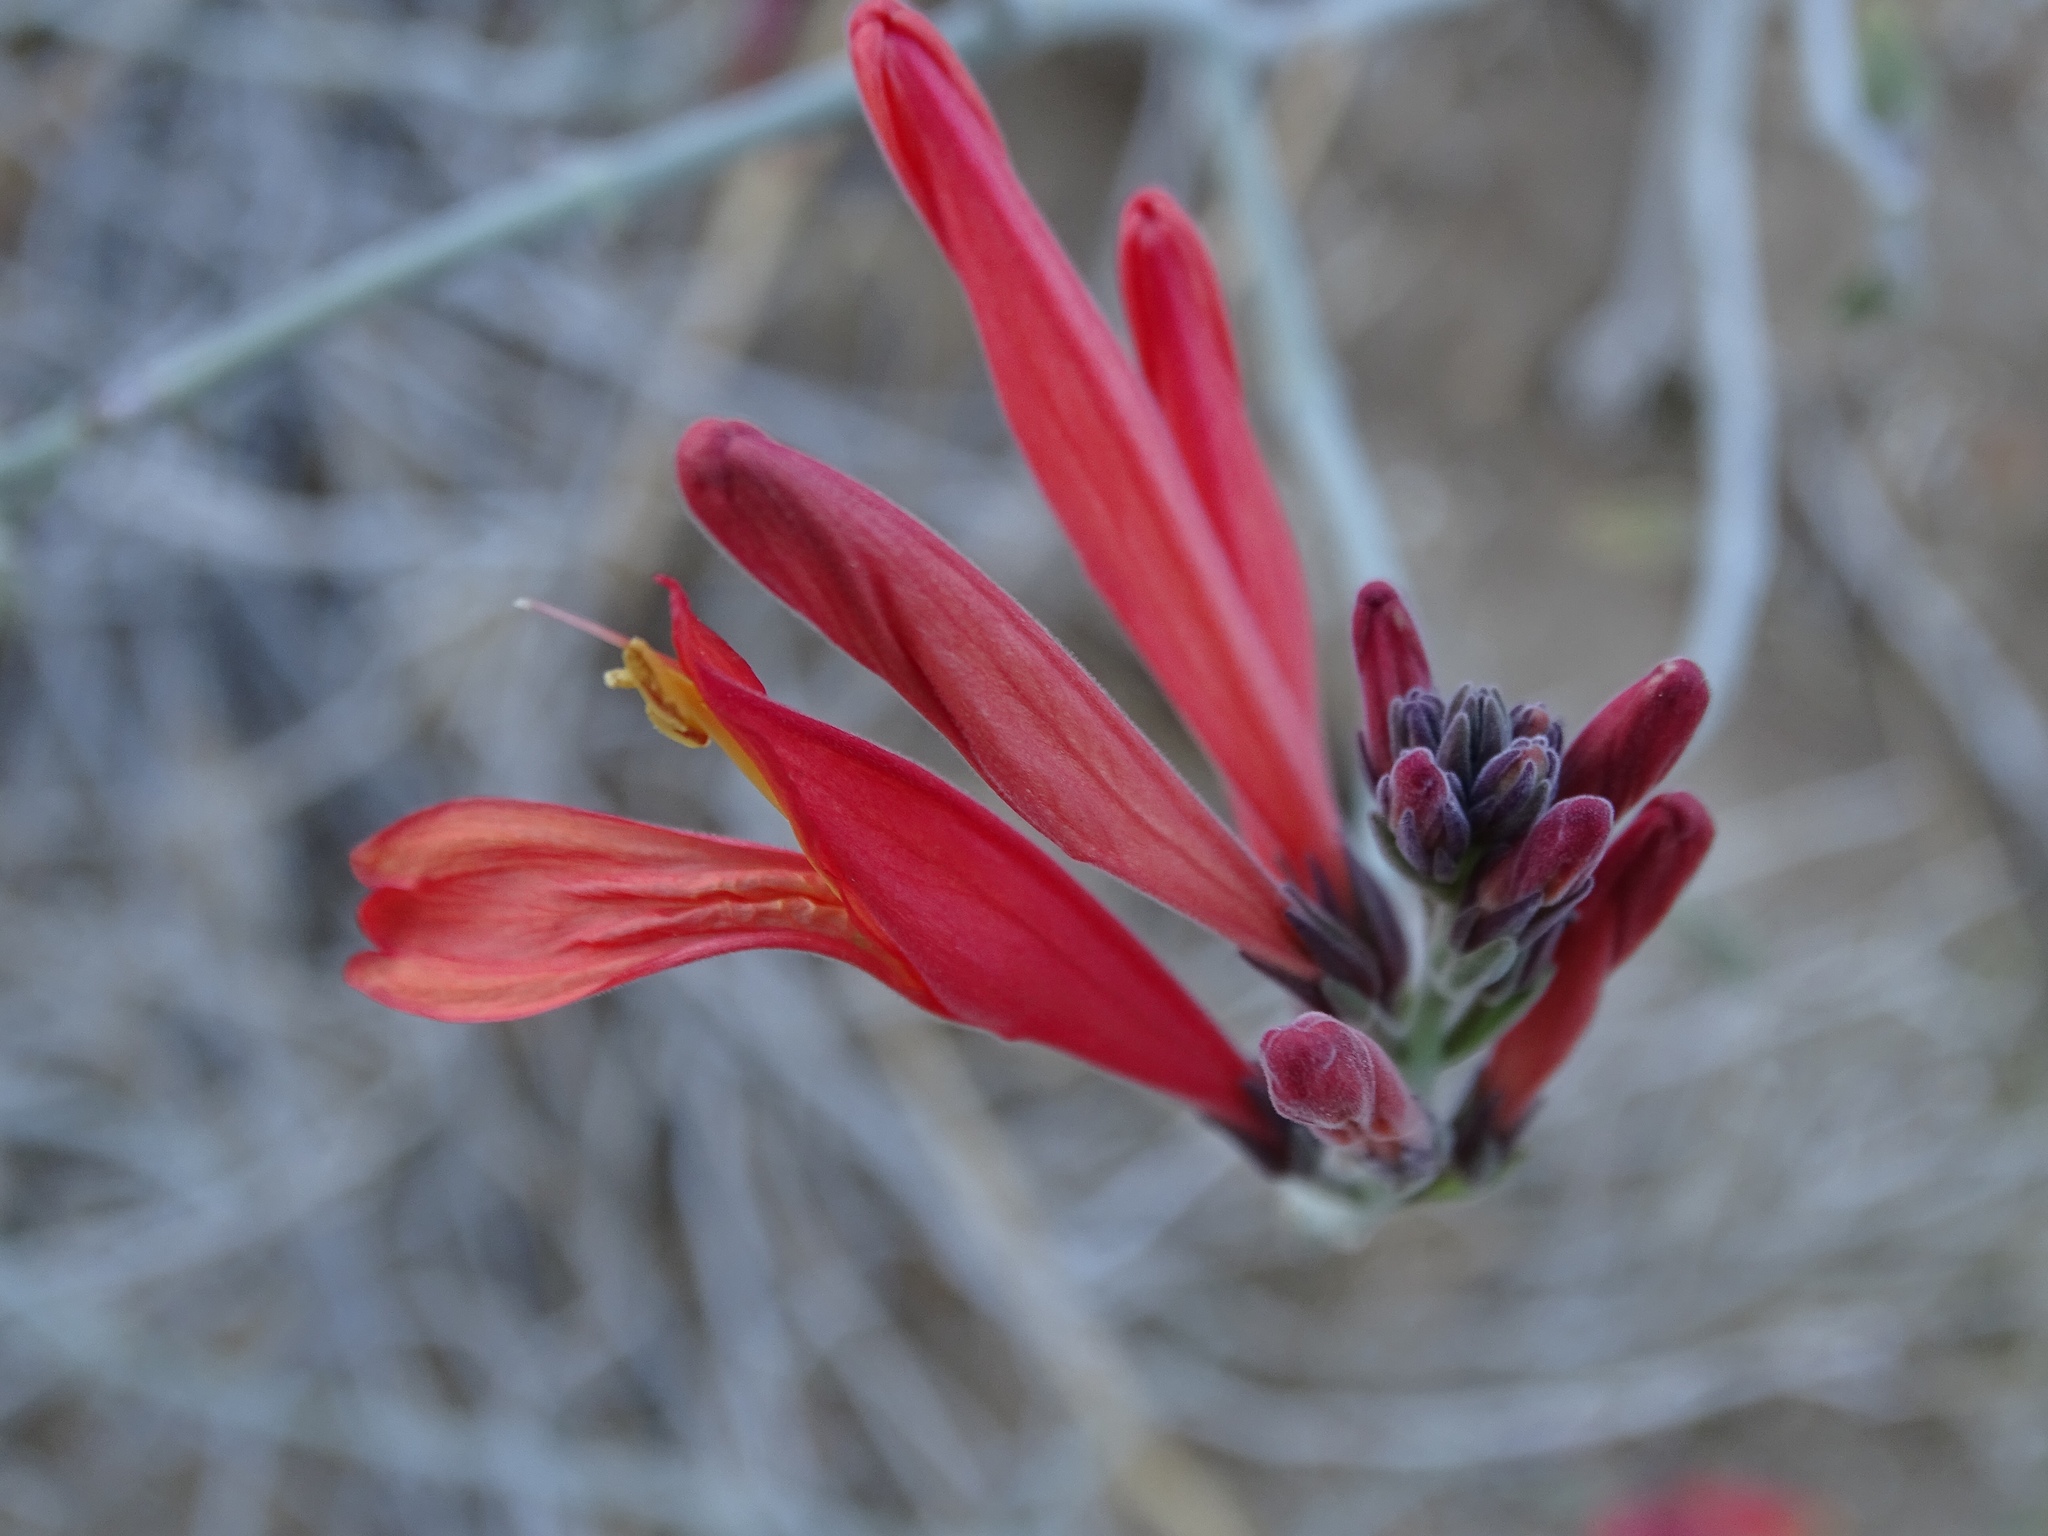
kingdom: Plantae
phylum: Tracheophyta
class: Magnoliopsida
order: Lamiales
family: Acanthaceae
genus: Justicia
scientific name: Justicia californica
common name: Chuparosa-honeysuckle
